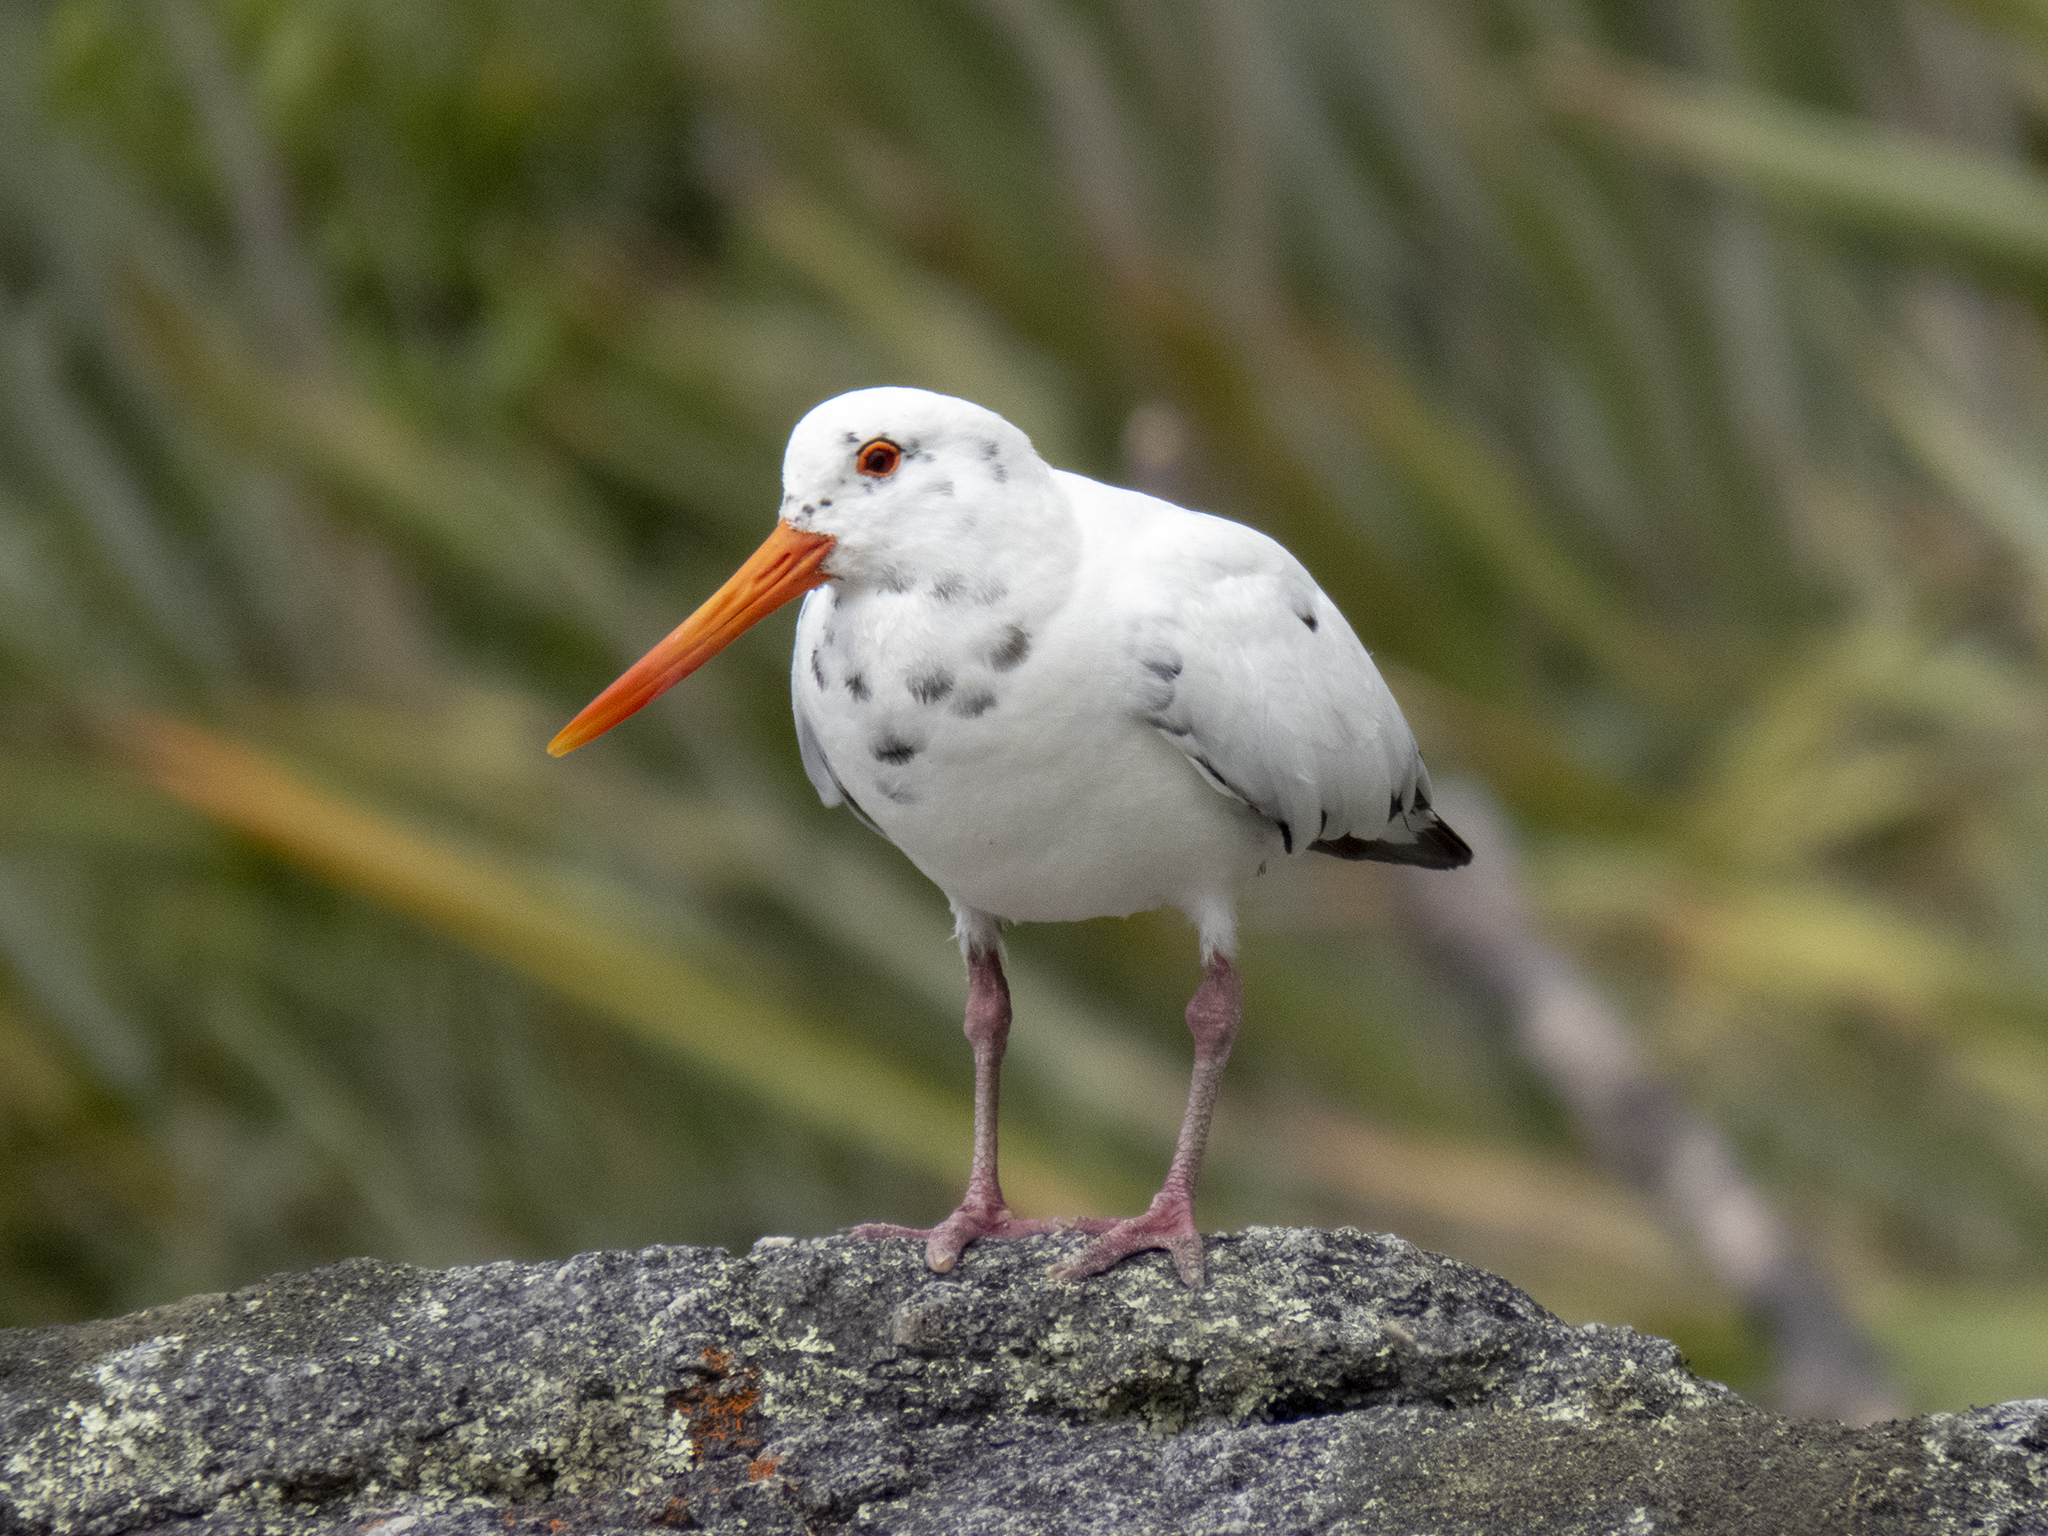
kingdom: Animalia
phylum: Chordata
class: Aves
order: Charadriiformes
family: Haematopodidae
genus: Haematopus
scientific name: Haematopus unicolor
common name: Variable oystercatcher
